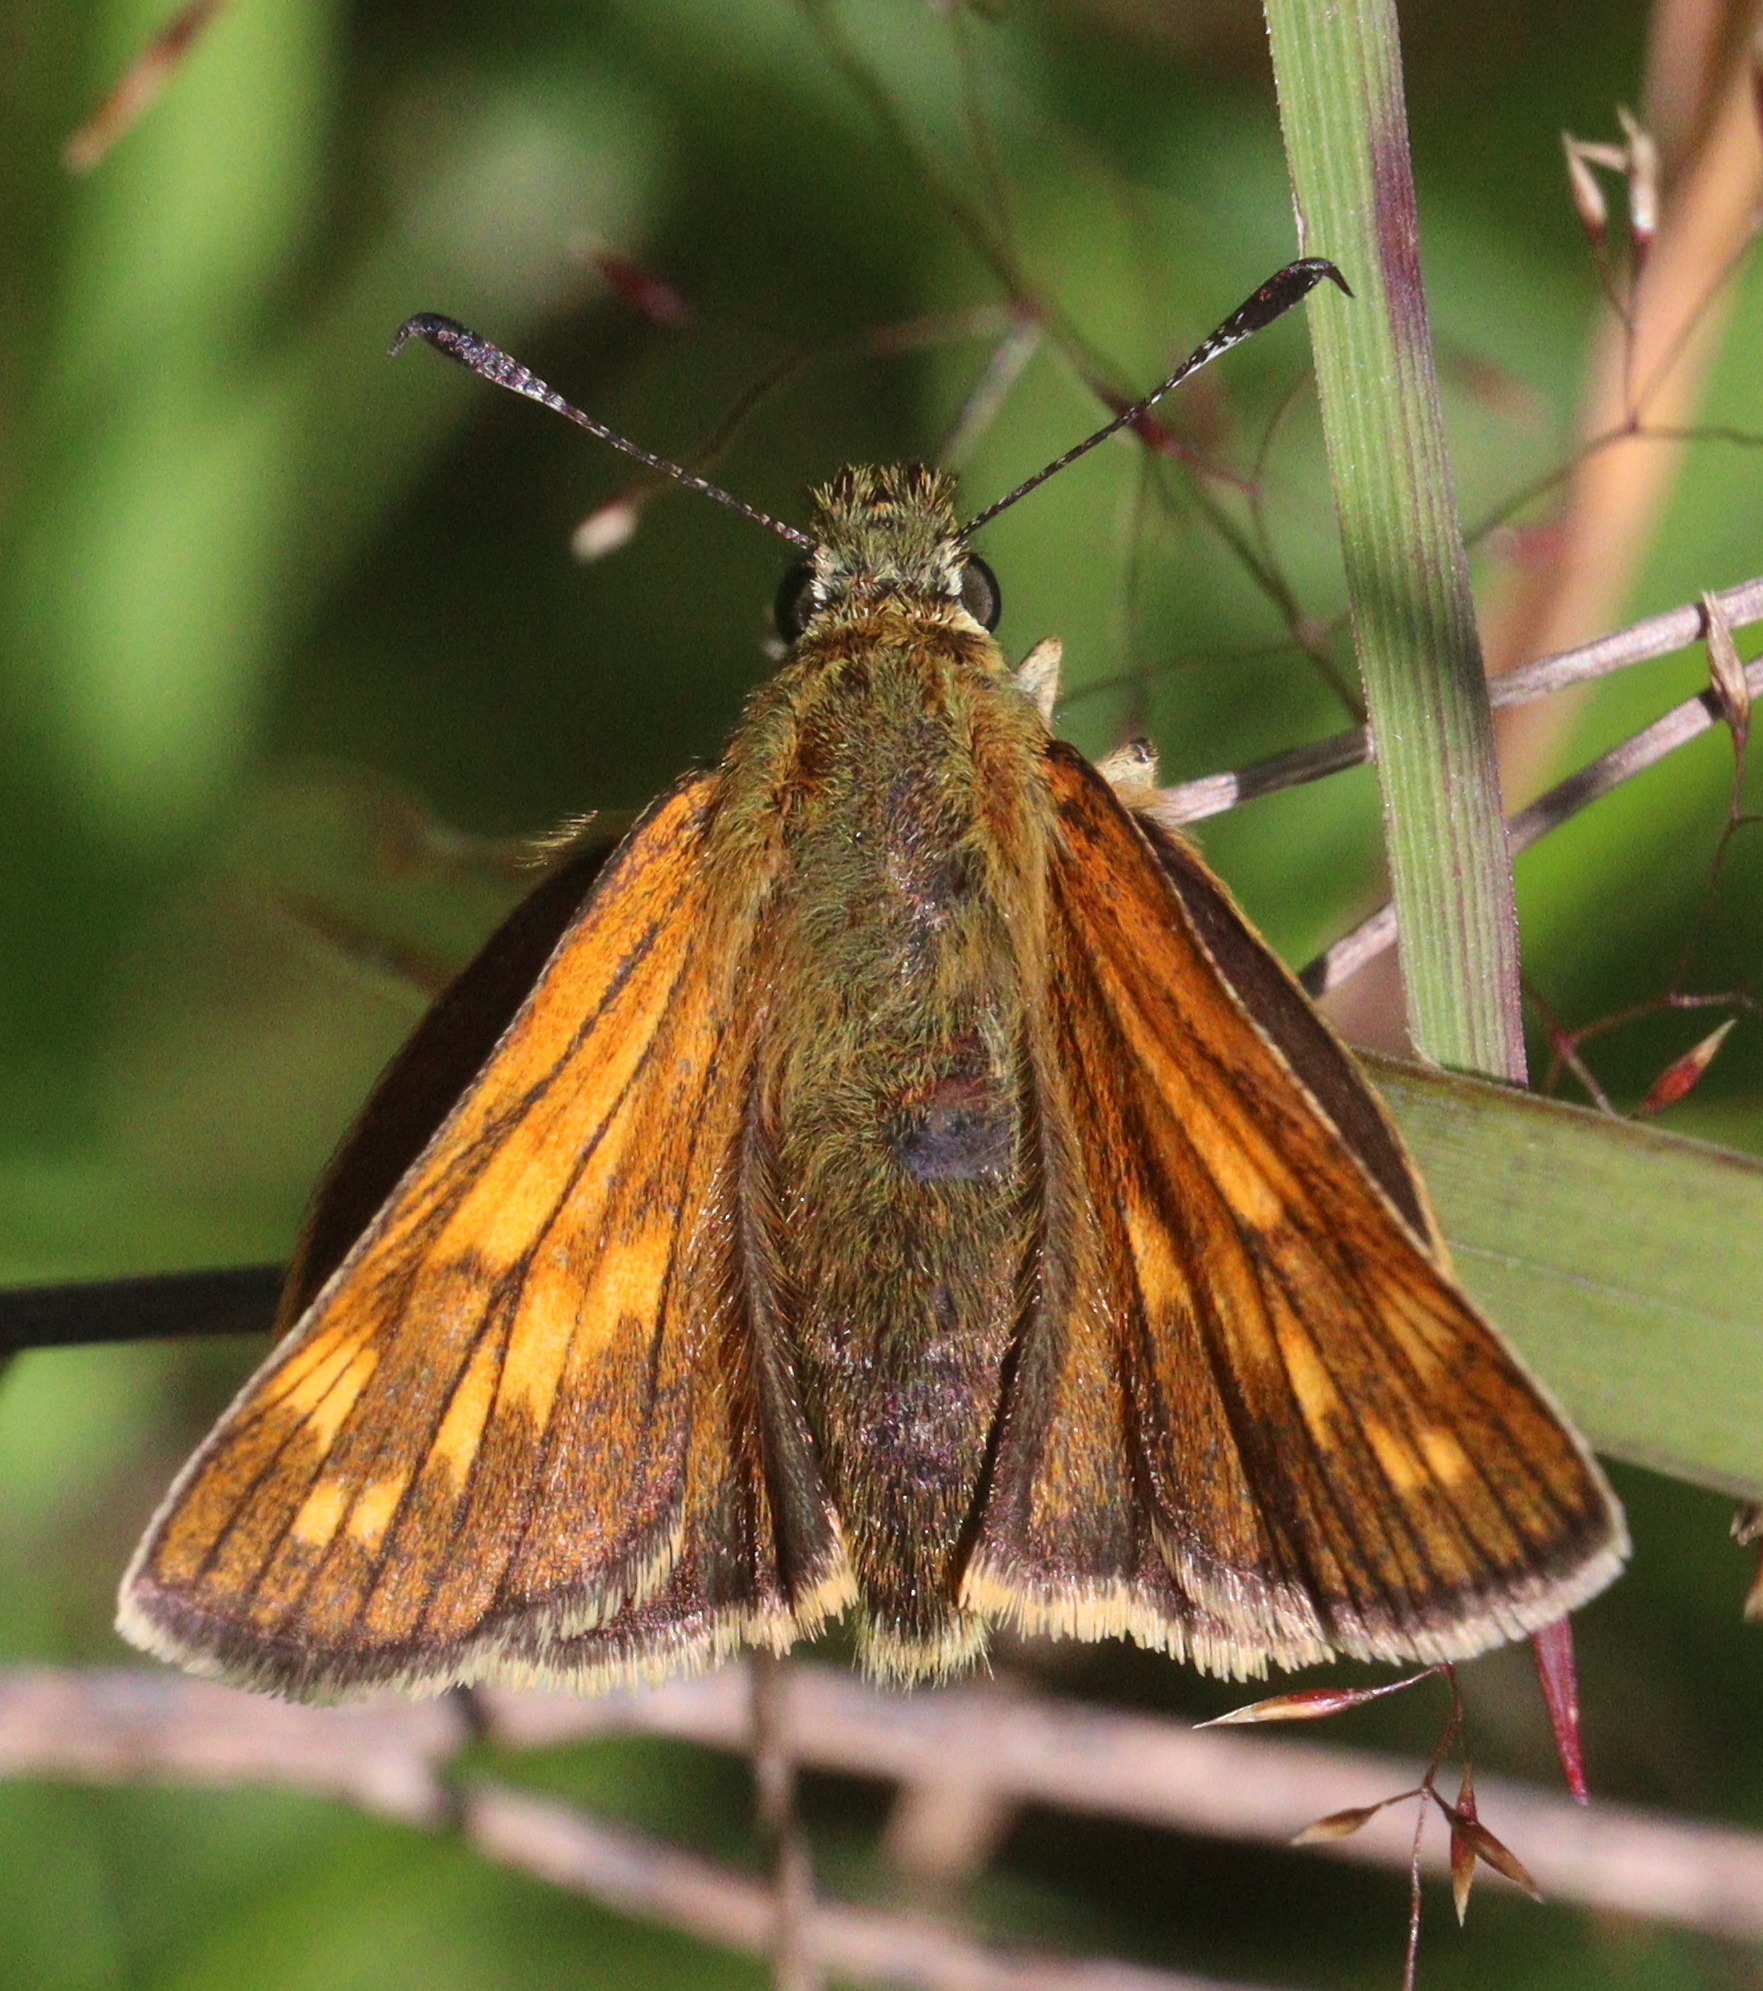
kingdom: Animalia
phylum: Arthropoda
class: Insecta
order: Lepidoptera
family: Hesperiidae
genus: Ochlodes
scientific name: Ochlodes venata
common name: Large skipper
